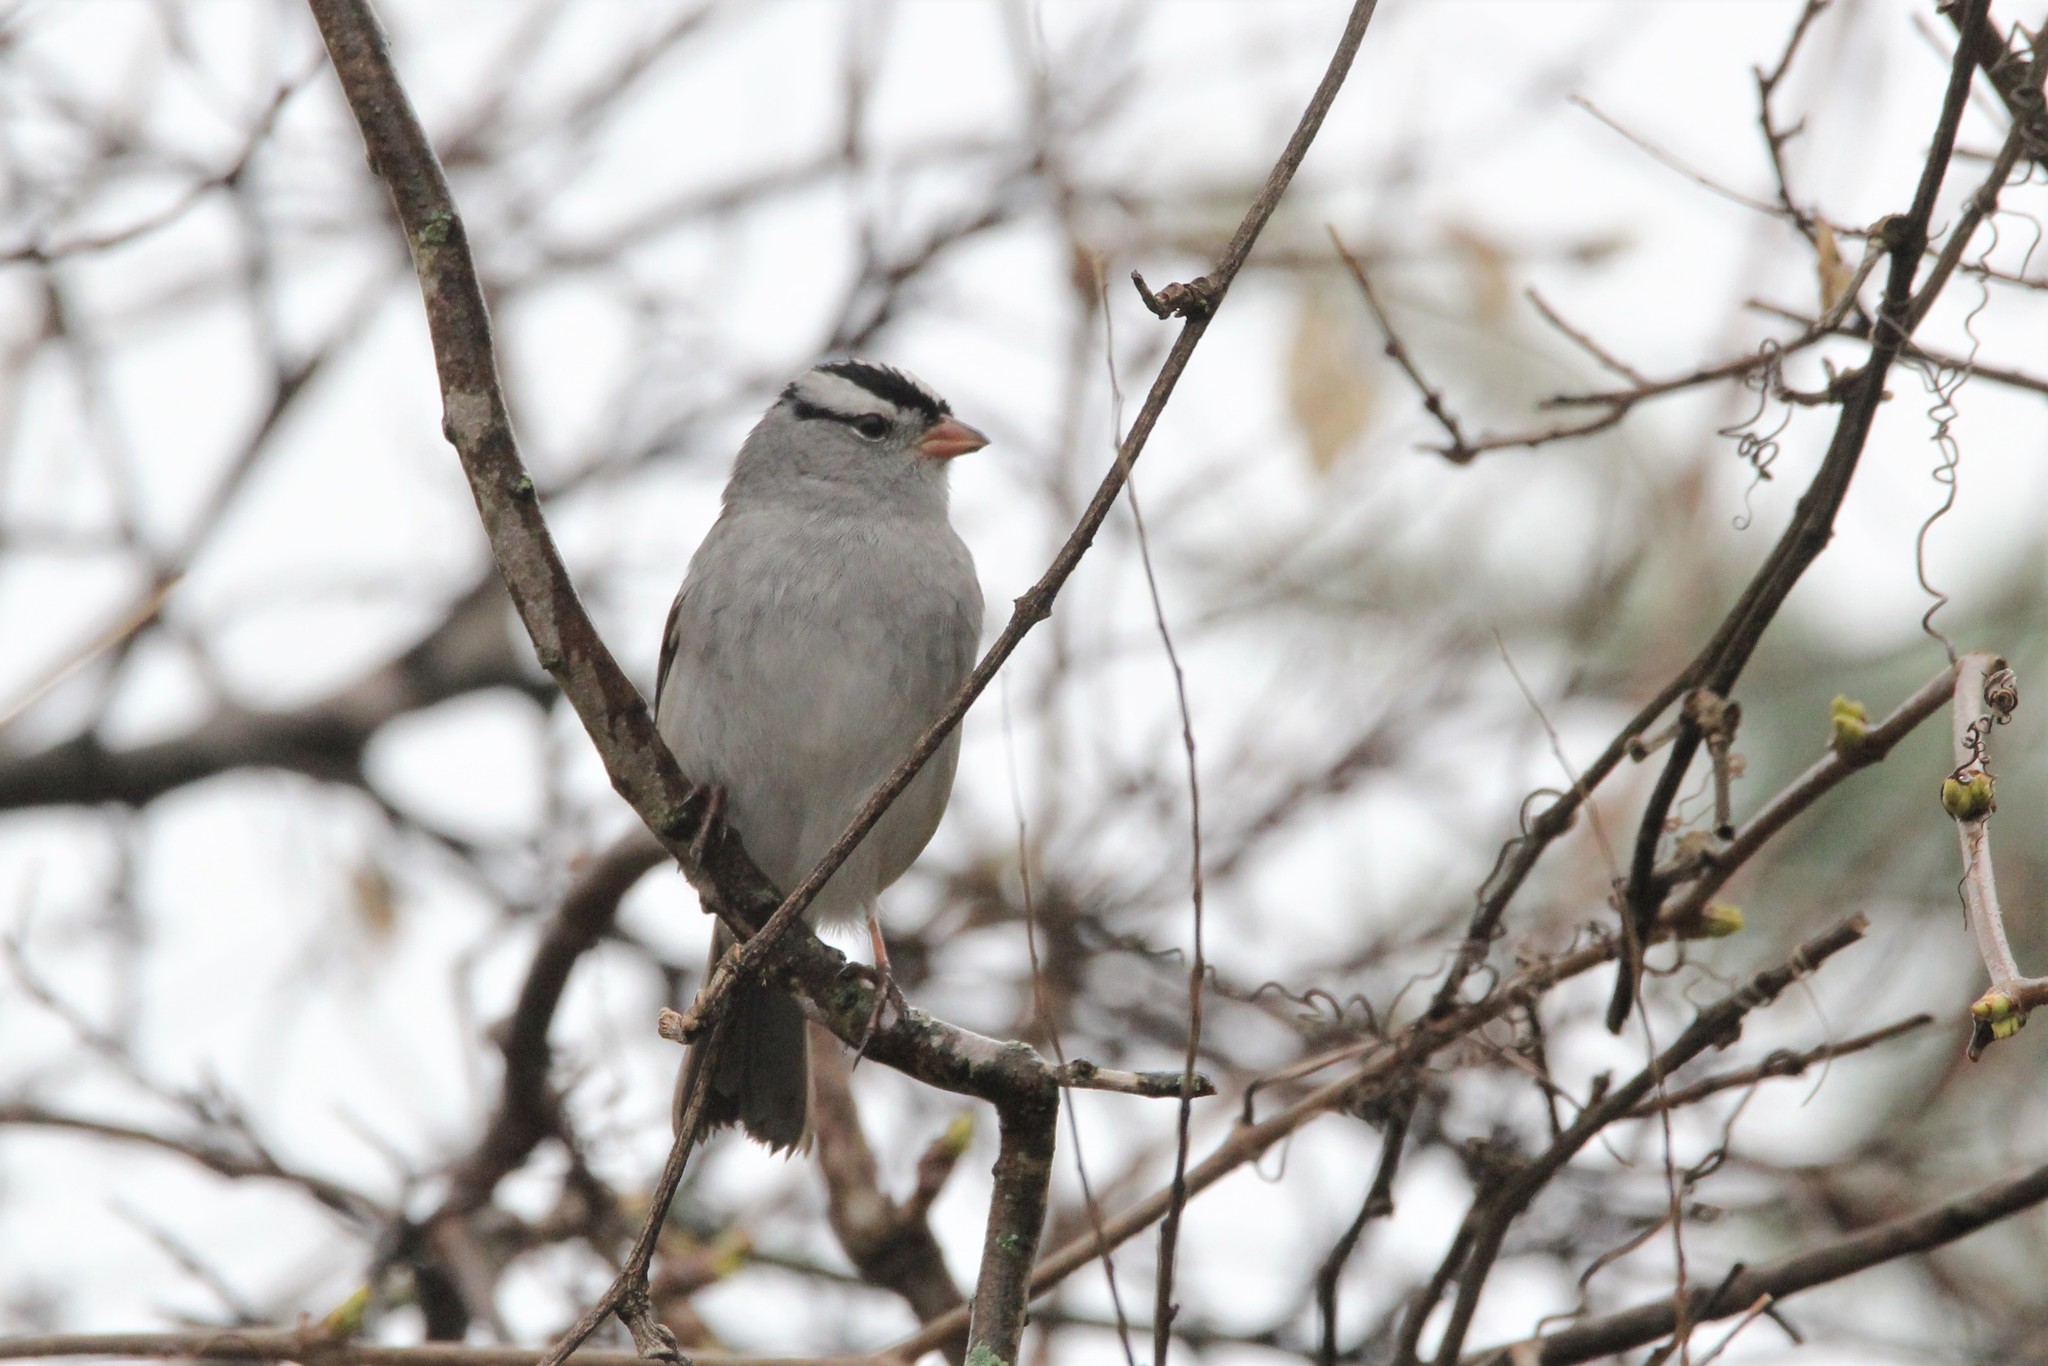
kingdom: Animalia
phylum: Chordata
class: Aves
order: Passeriformes
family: Passerellidae
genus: Zonotrichia
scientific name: Zonotrichia leucophrys
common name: White-crowned sparrow
